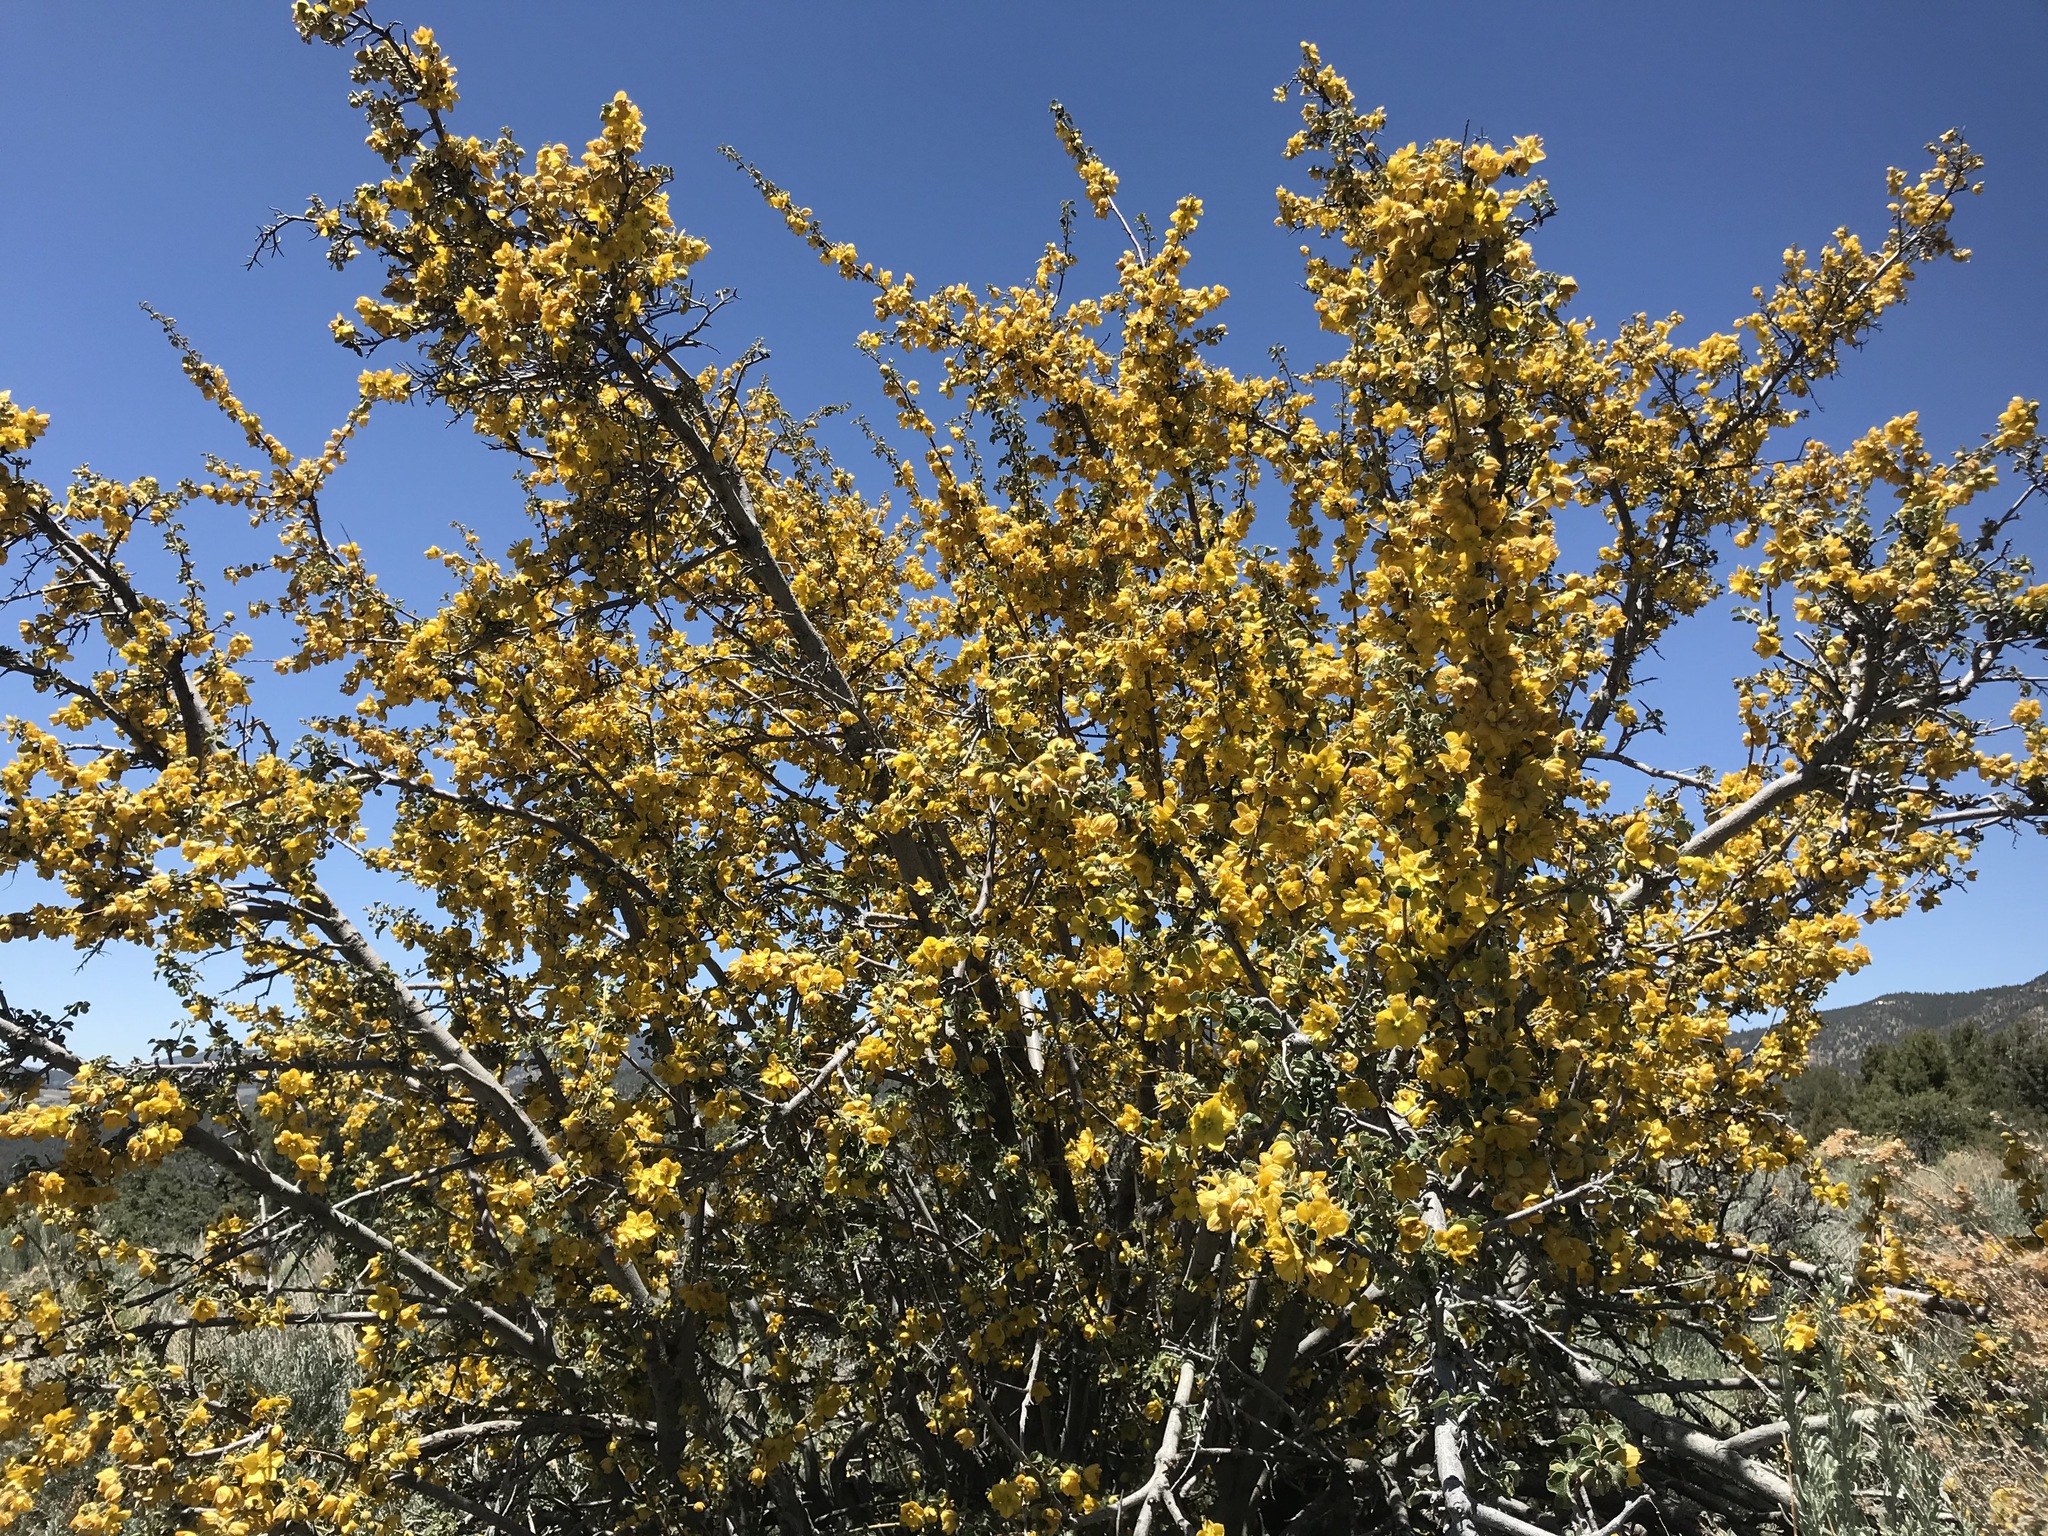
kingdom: Plantae
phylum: Tracheophyta
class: Magnoliopsida
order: Malvales
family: Malvaceae
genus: Fremontodendron
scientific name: Fremontodendron californicum
